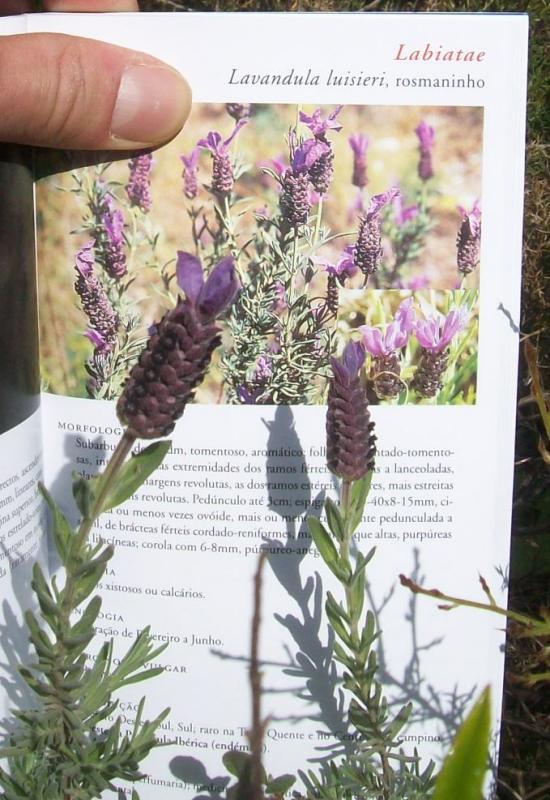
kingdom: Plantae
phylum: Tracheophyta
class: Magnoliopsida
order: Lamiales
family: Lamiaceae
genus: Lavandula
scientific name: Lavandula stoechas
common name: French lavender
